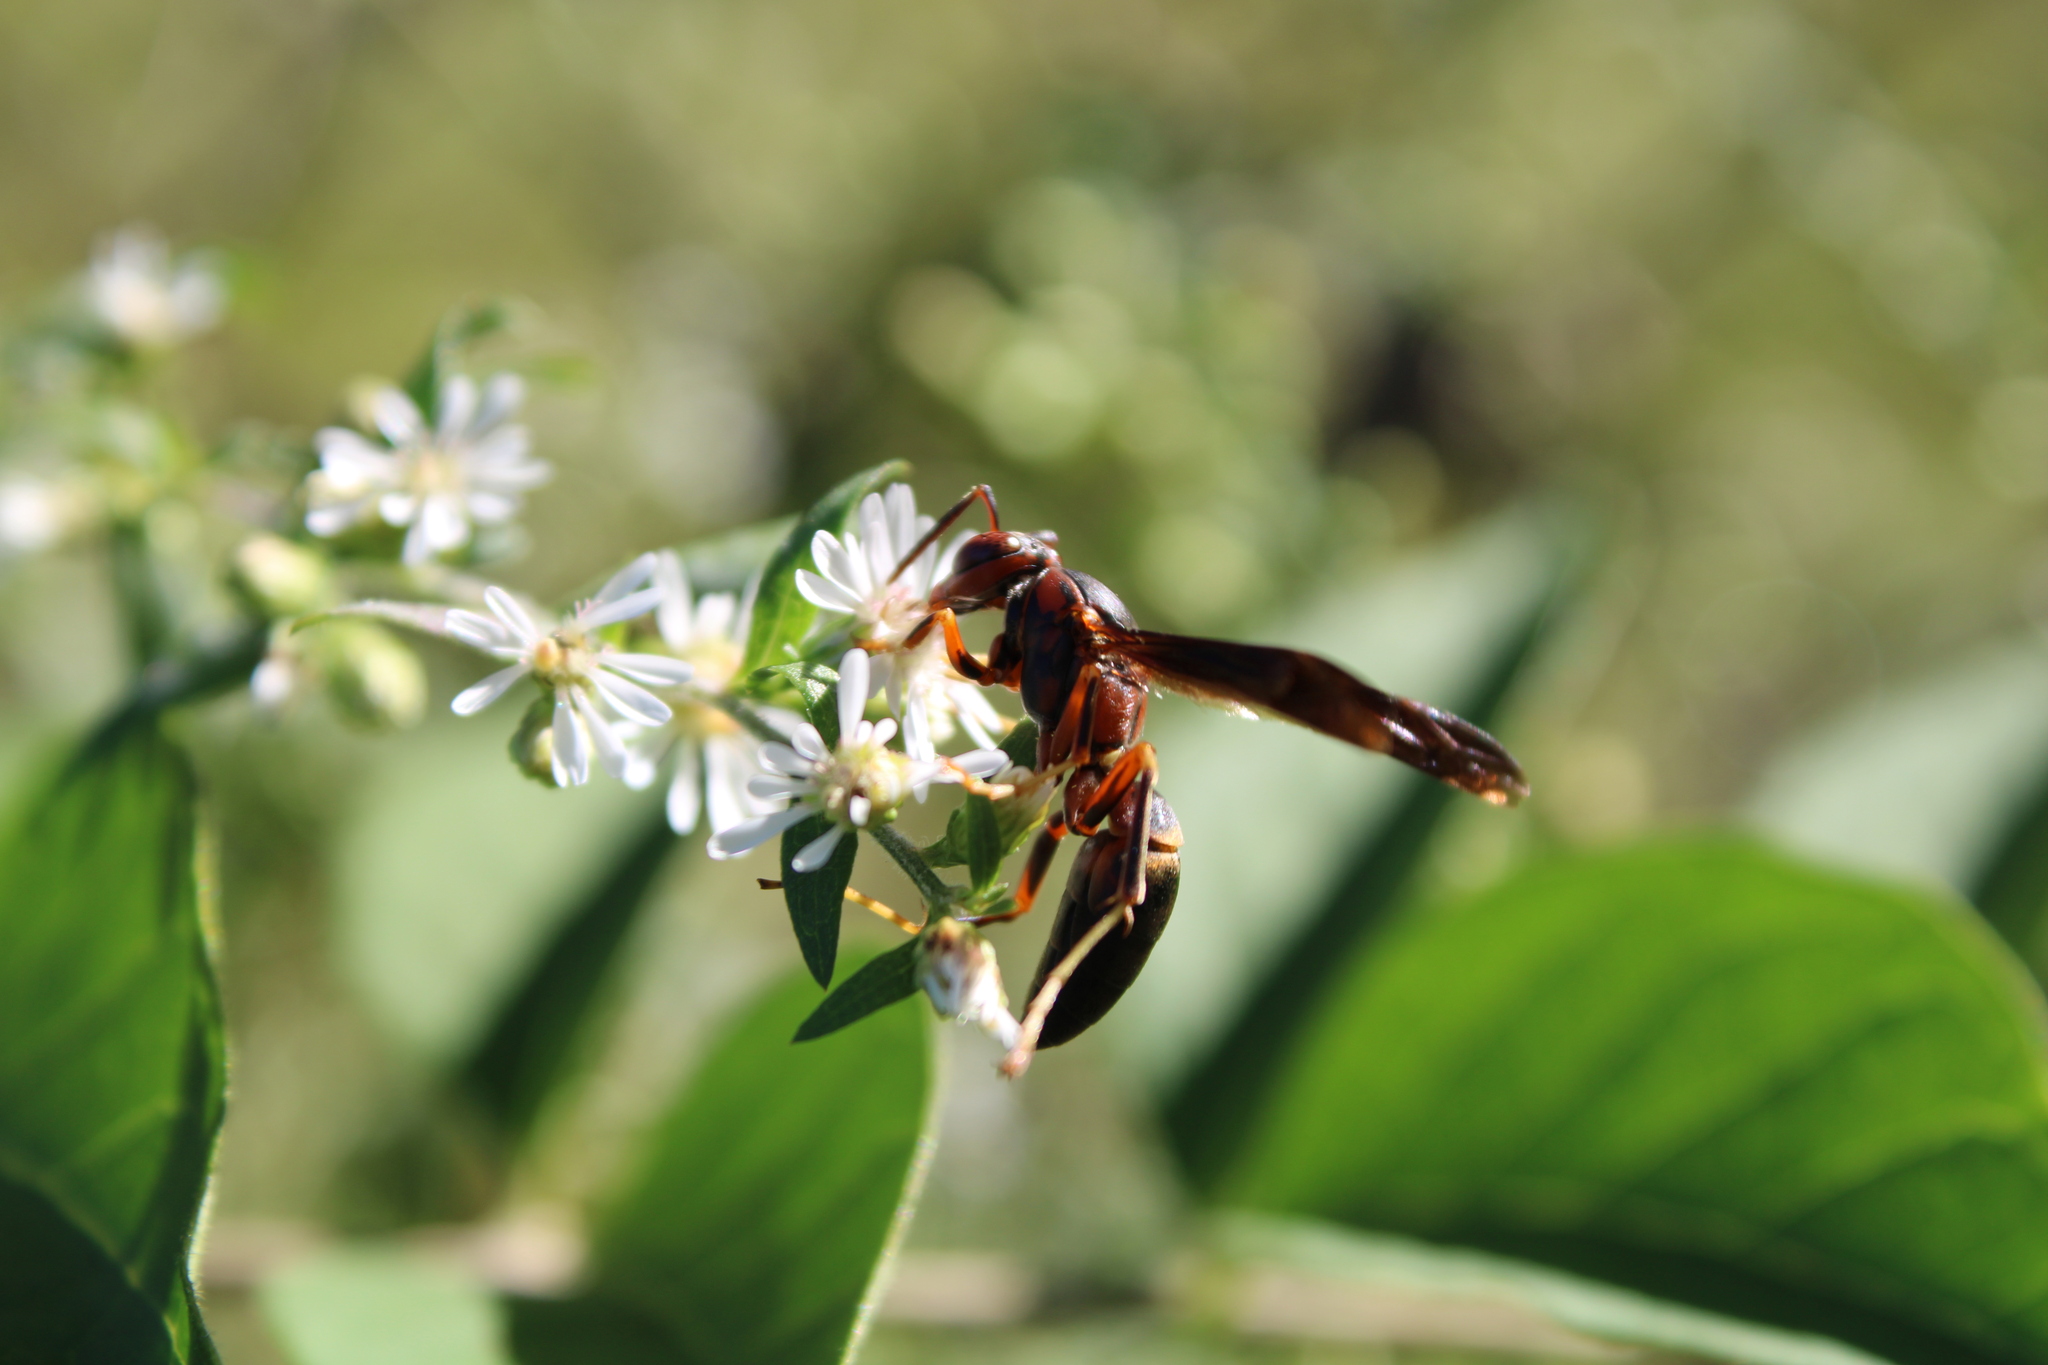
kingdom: Animalia
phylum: Arthropoda
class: Insecta
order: Hymenoptera
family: Eumenidae
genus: Polistes
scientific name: Polistes metricus
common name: Metric paper wasp
